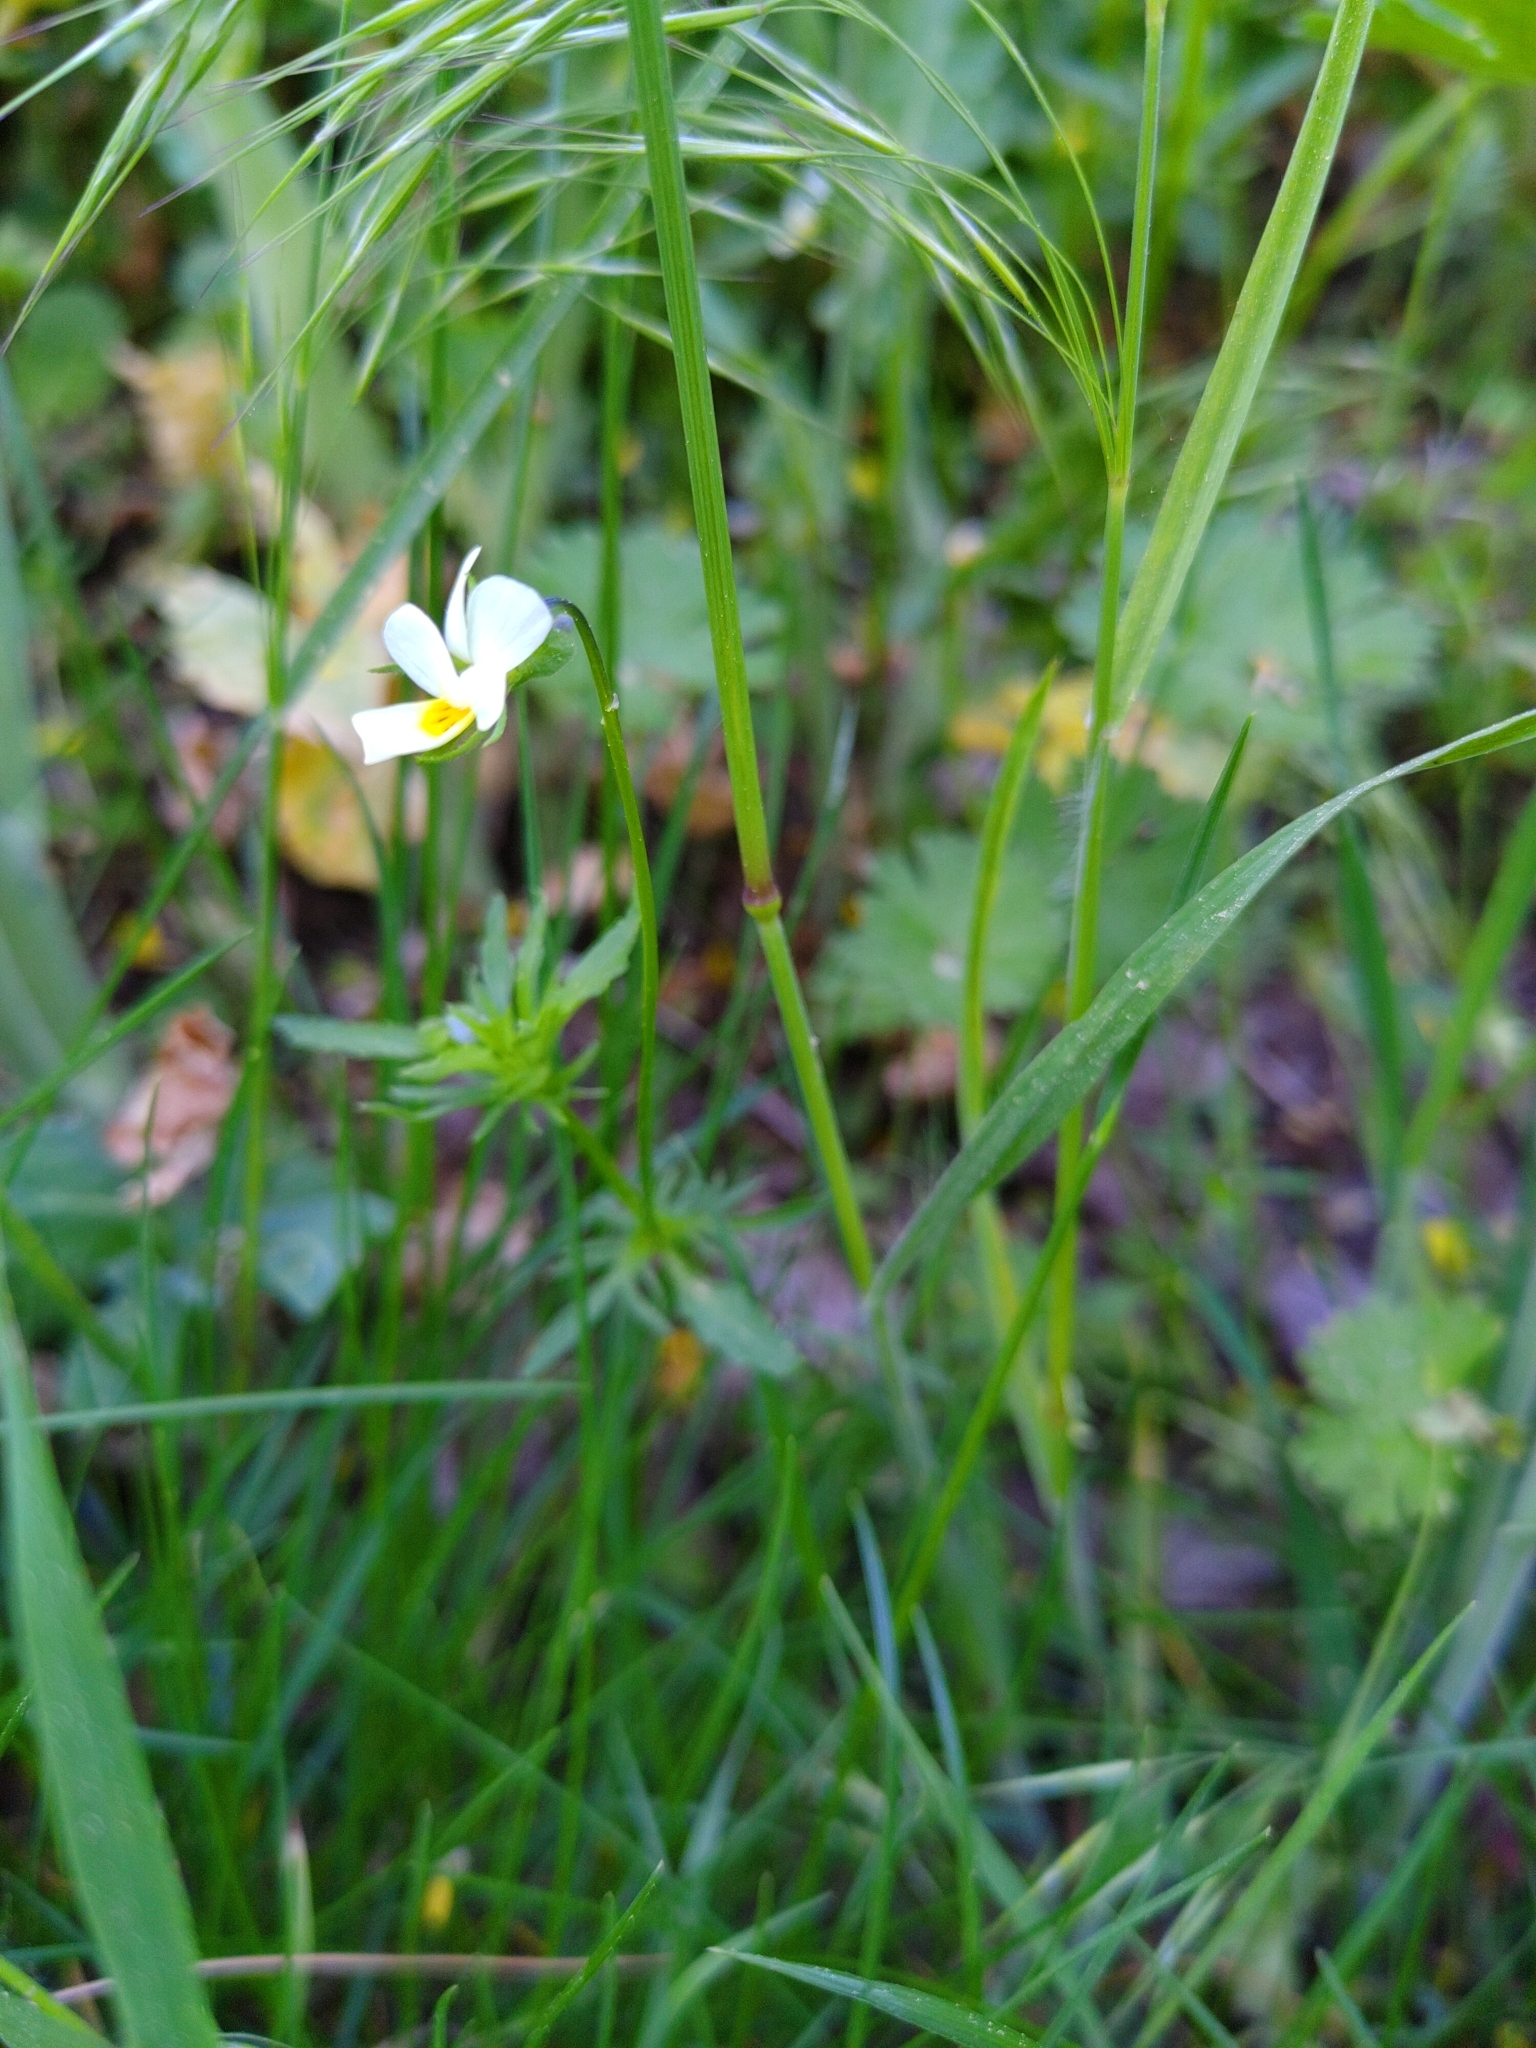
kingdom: Plantae
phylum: Tracheophyta
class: Magnoliopsida
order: Malpighiales
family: Violaceae
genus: Viola
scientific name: Viola arvensis
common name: Field pansy
